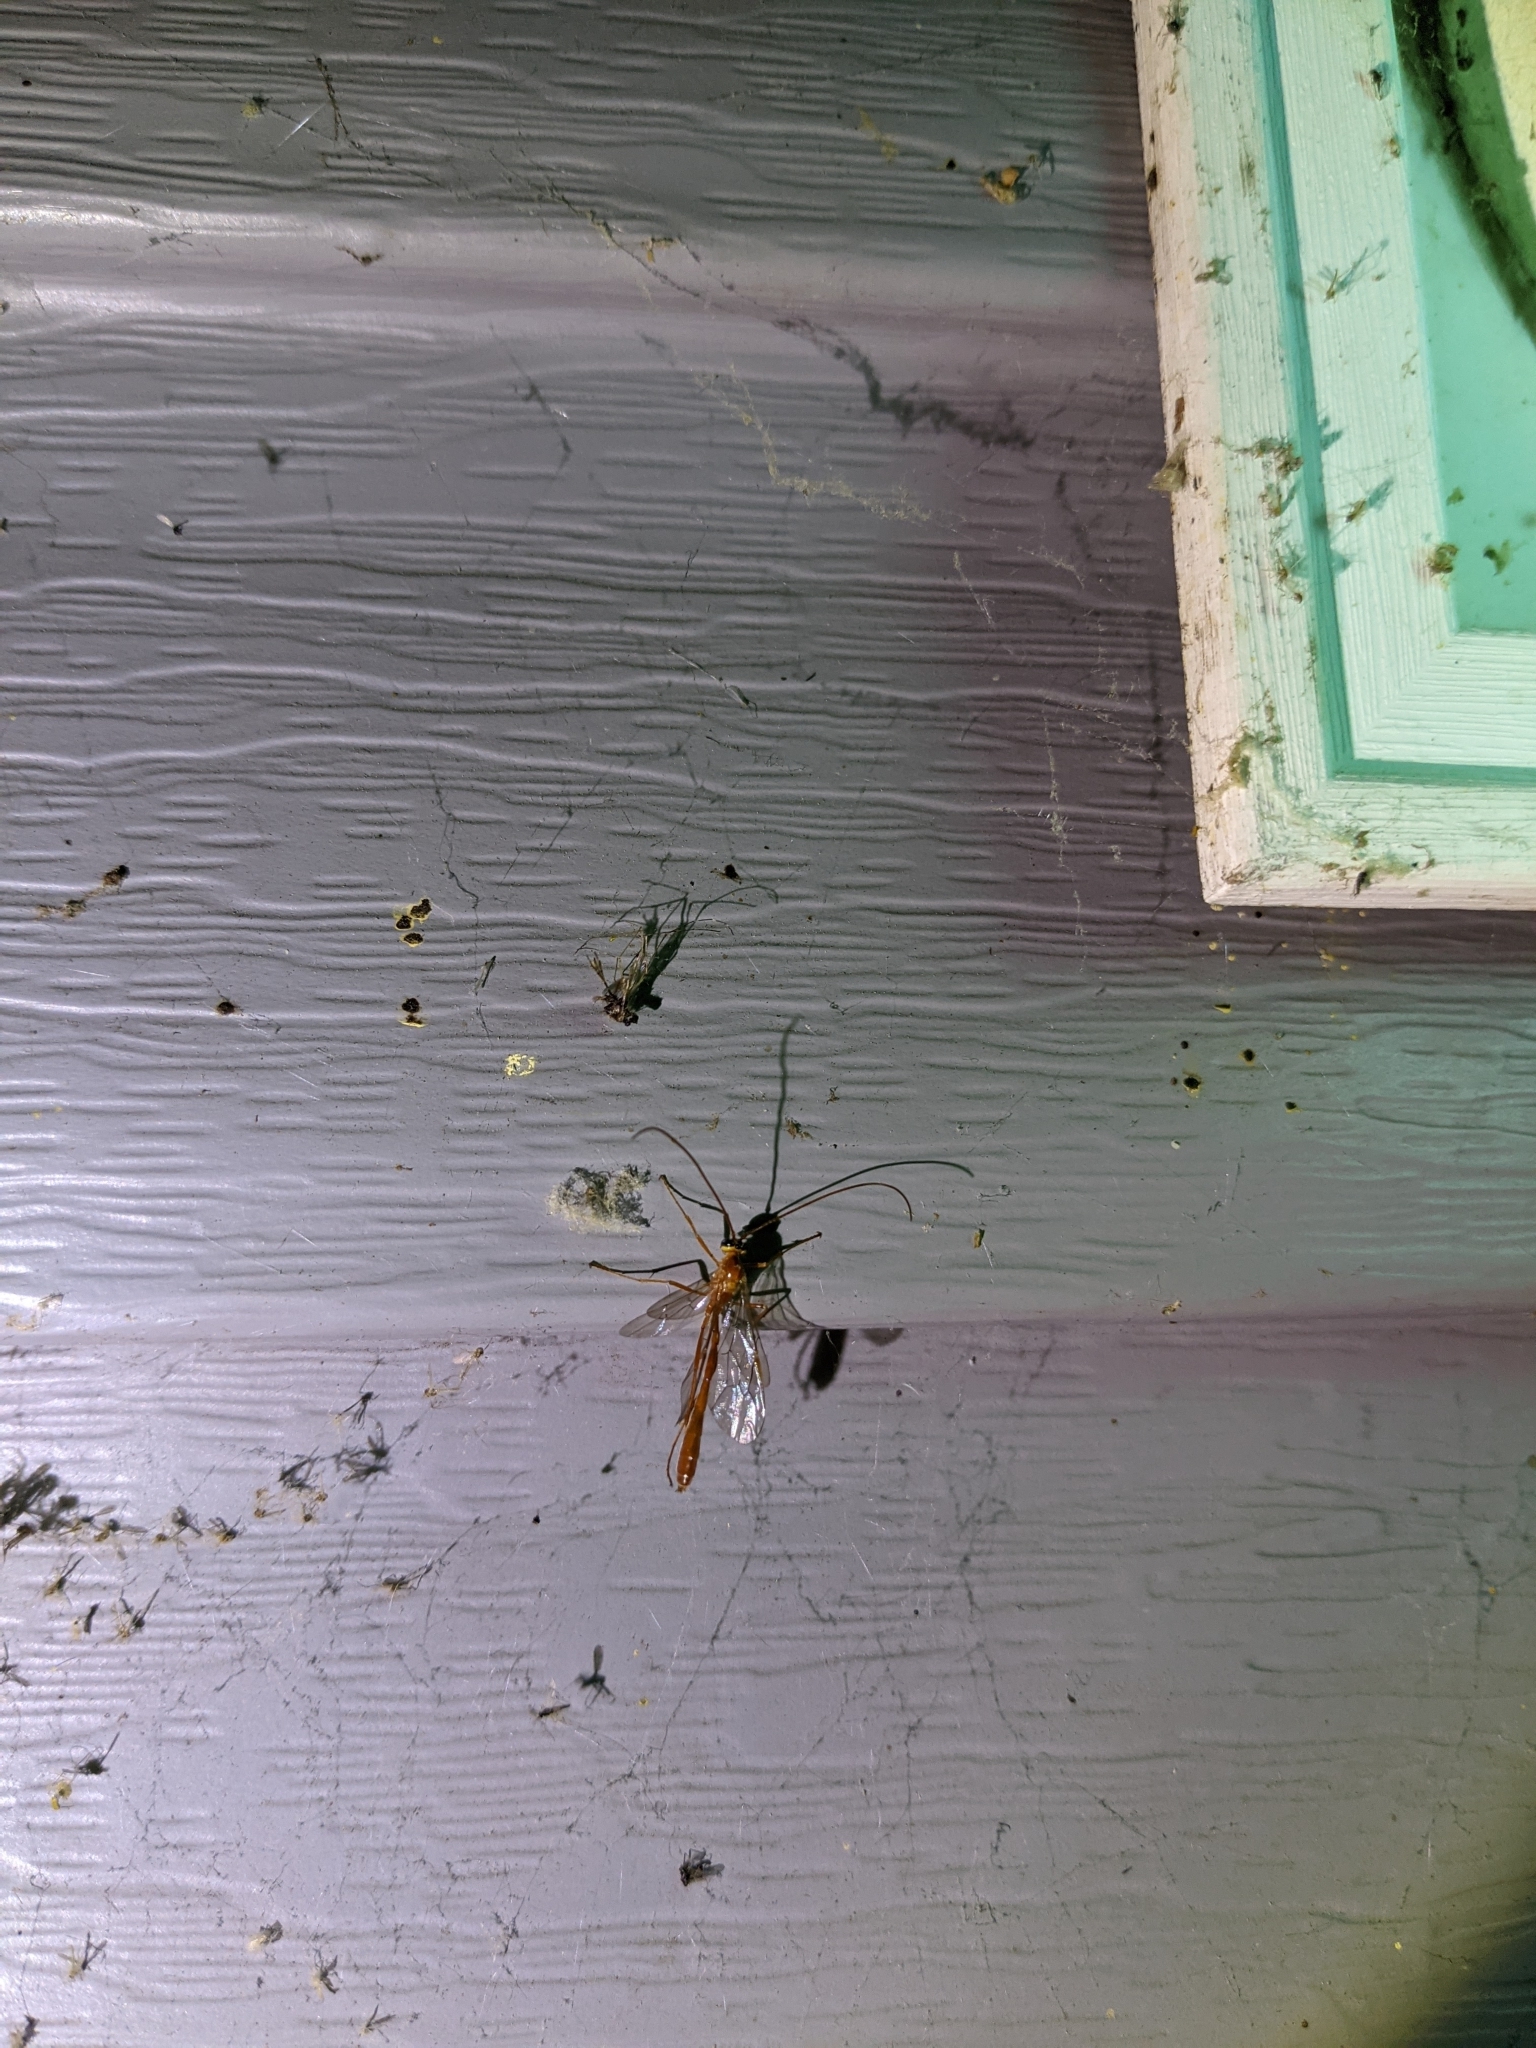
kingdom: Animalia
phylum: Arthropoda
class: Insecta
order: Hymenoptera
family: Ichneumonidae
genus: Enicospilus
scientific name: Enicospilus purgatus
